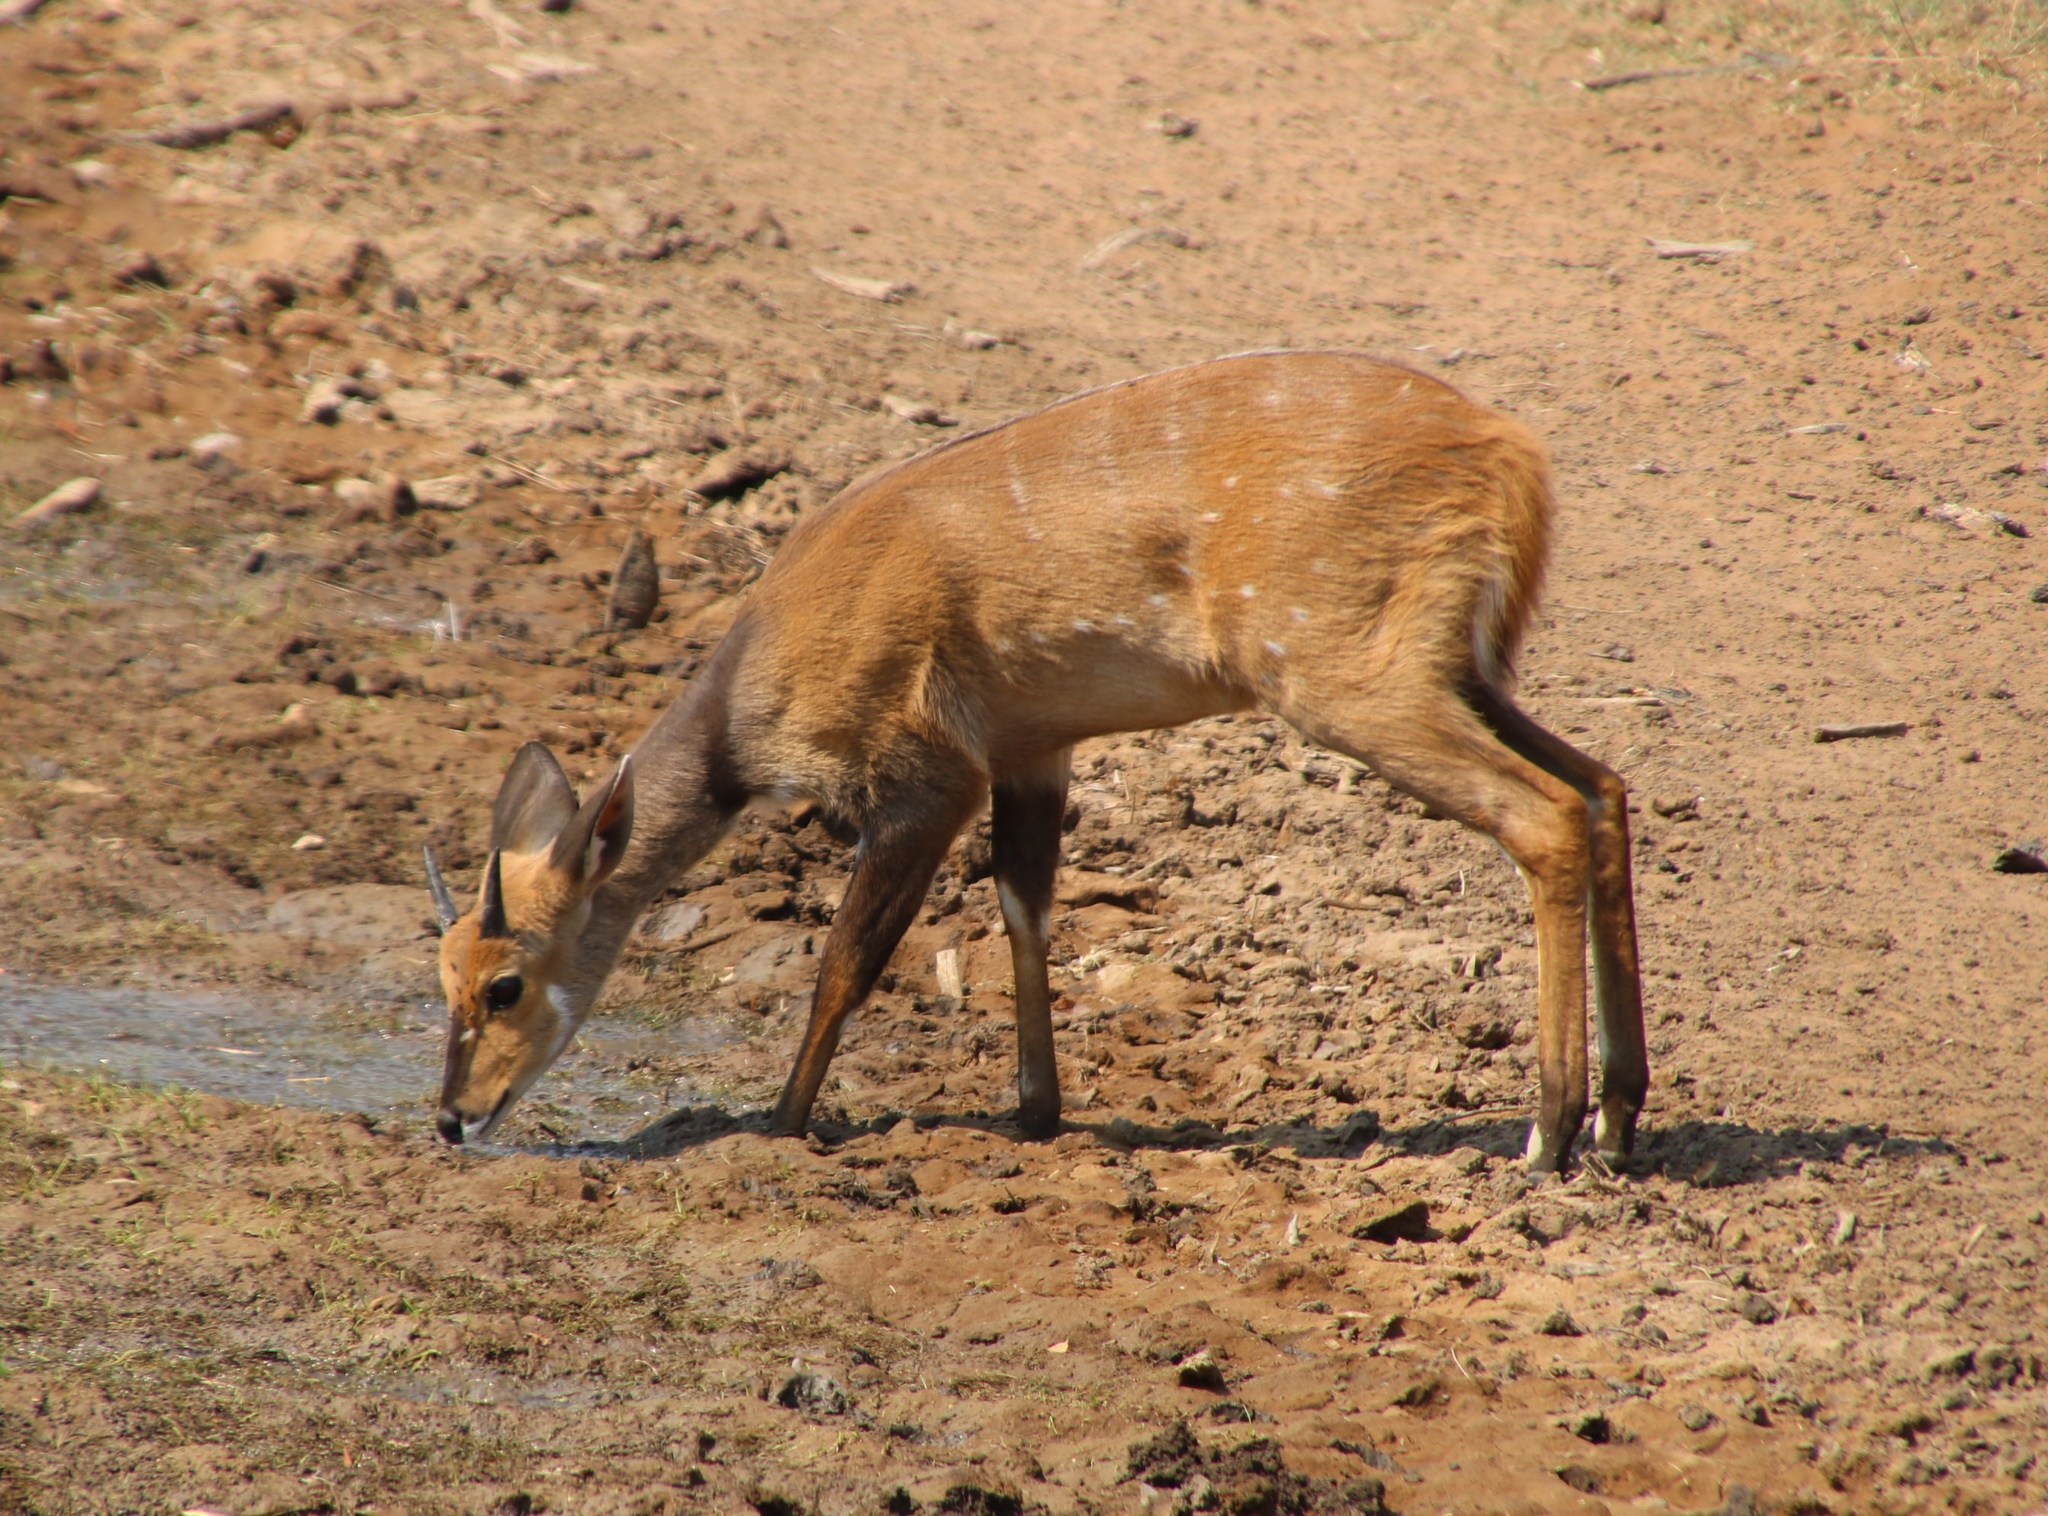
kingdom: Animalia
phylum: Chordata
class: Mammalia
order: Artiodactyla
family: Bovidae
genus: Tragelaphus
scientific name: Tragelaphus scriptus
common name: Bushbuck
